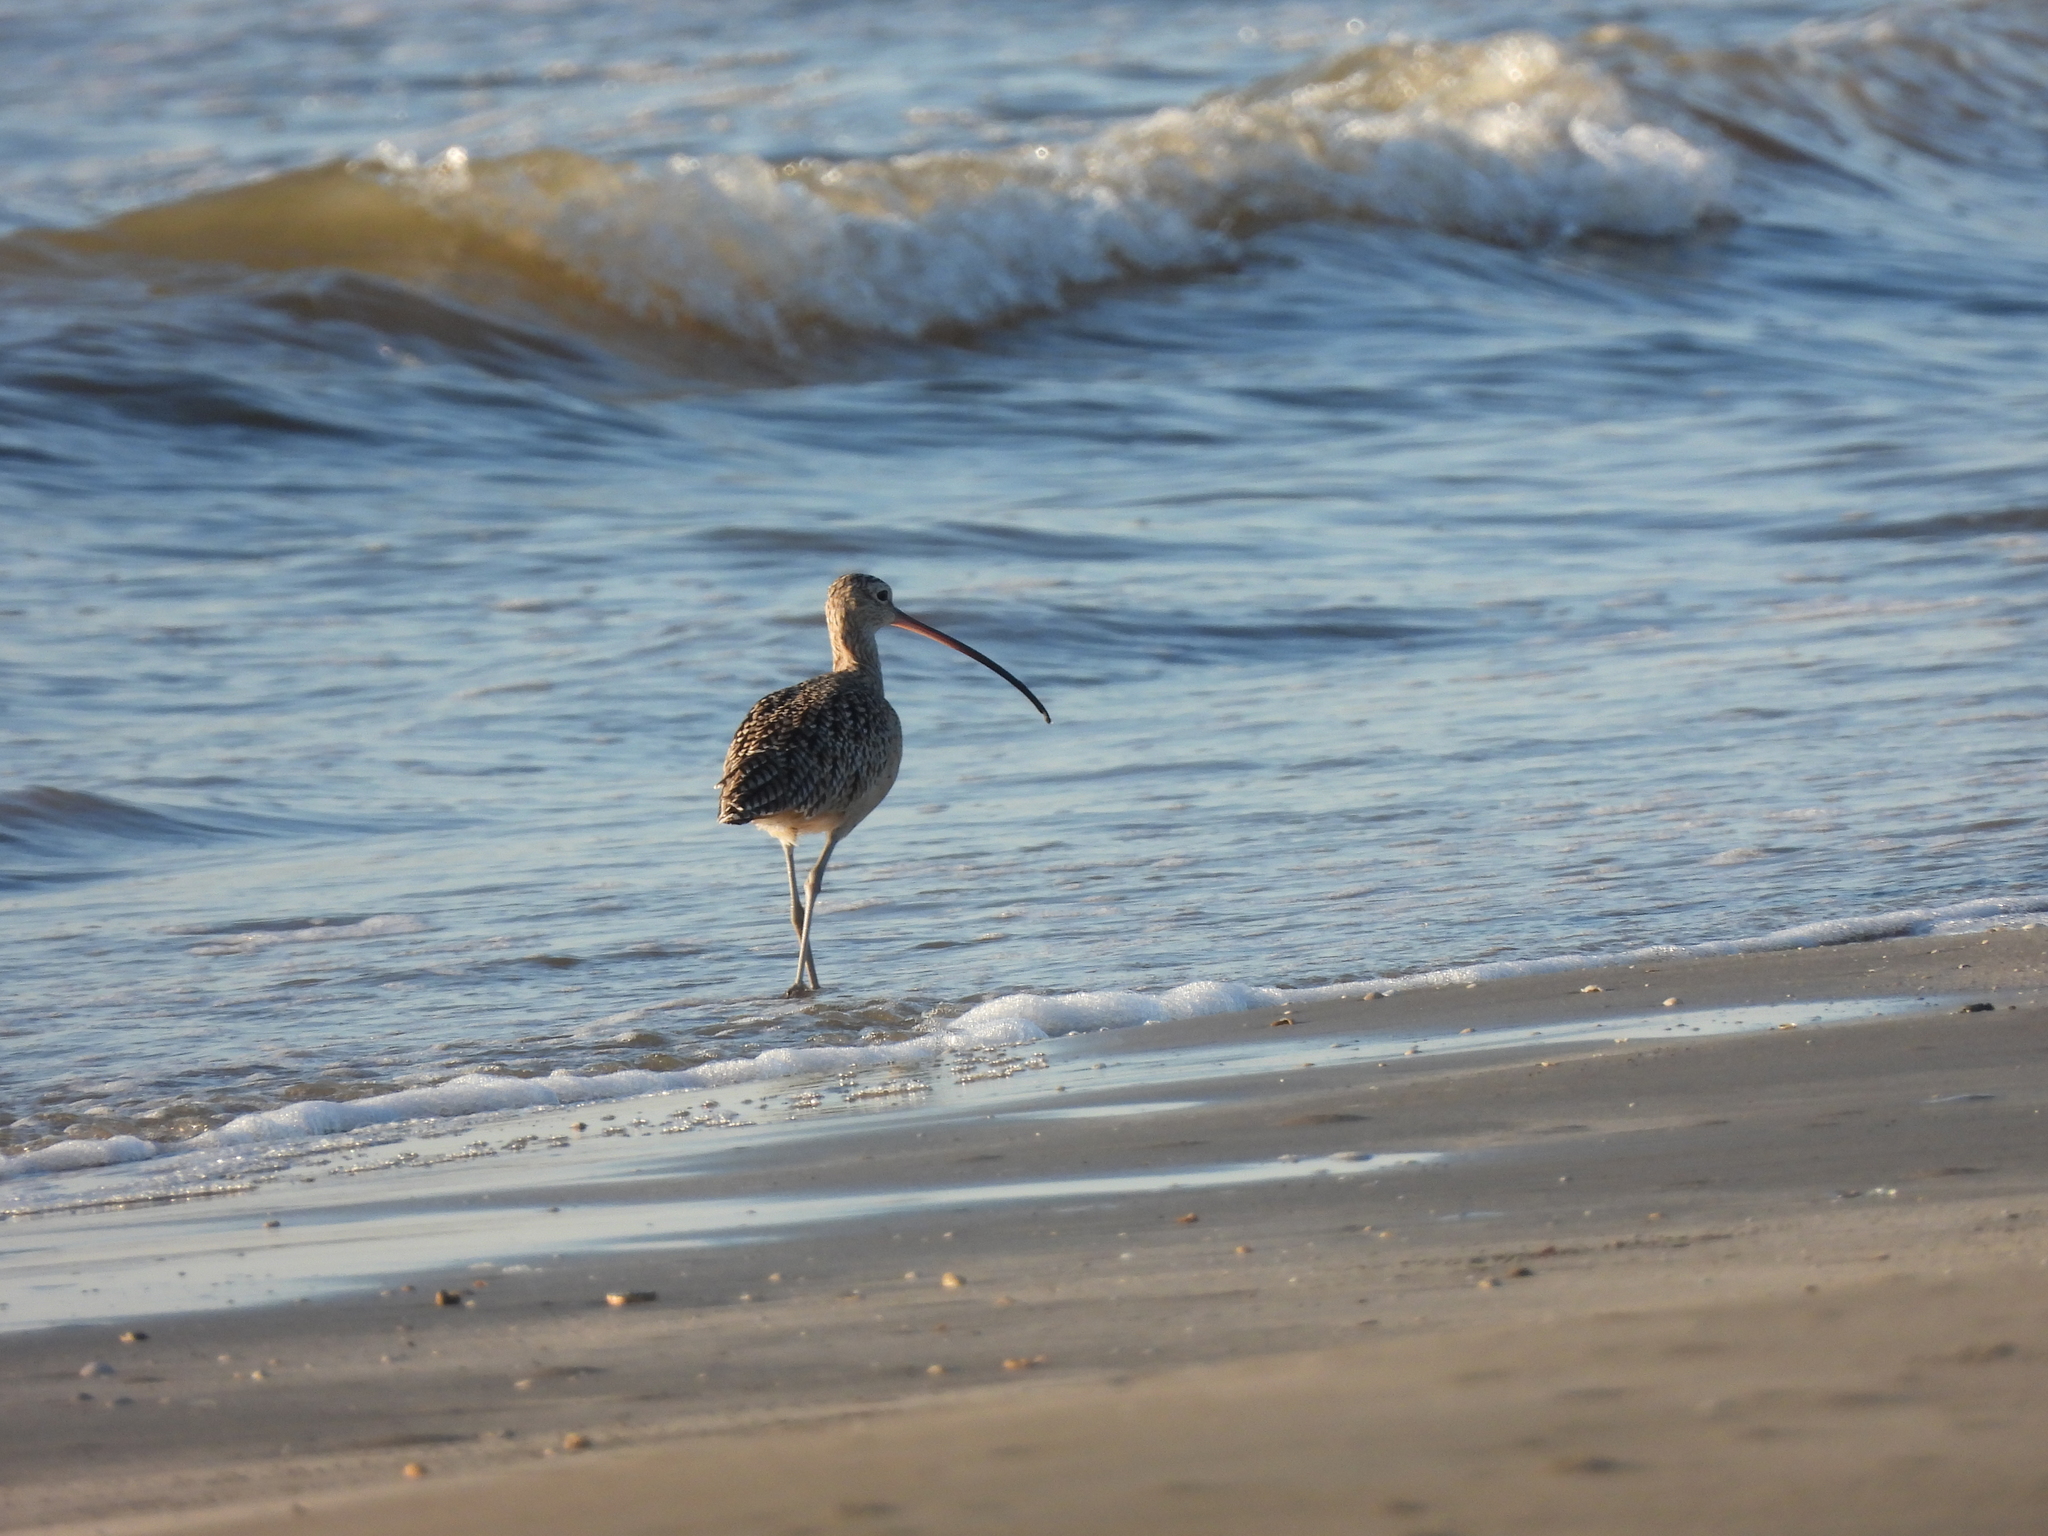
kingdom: Animalia
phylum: Chordata
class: Aves
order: Charadriiformes
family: Scolopacidae
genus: Numenius
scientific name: Numenius americanus
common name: Long-billed curlew
